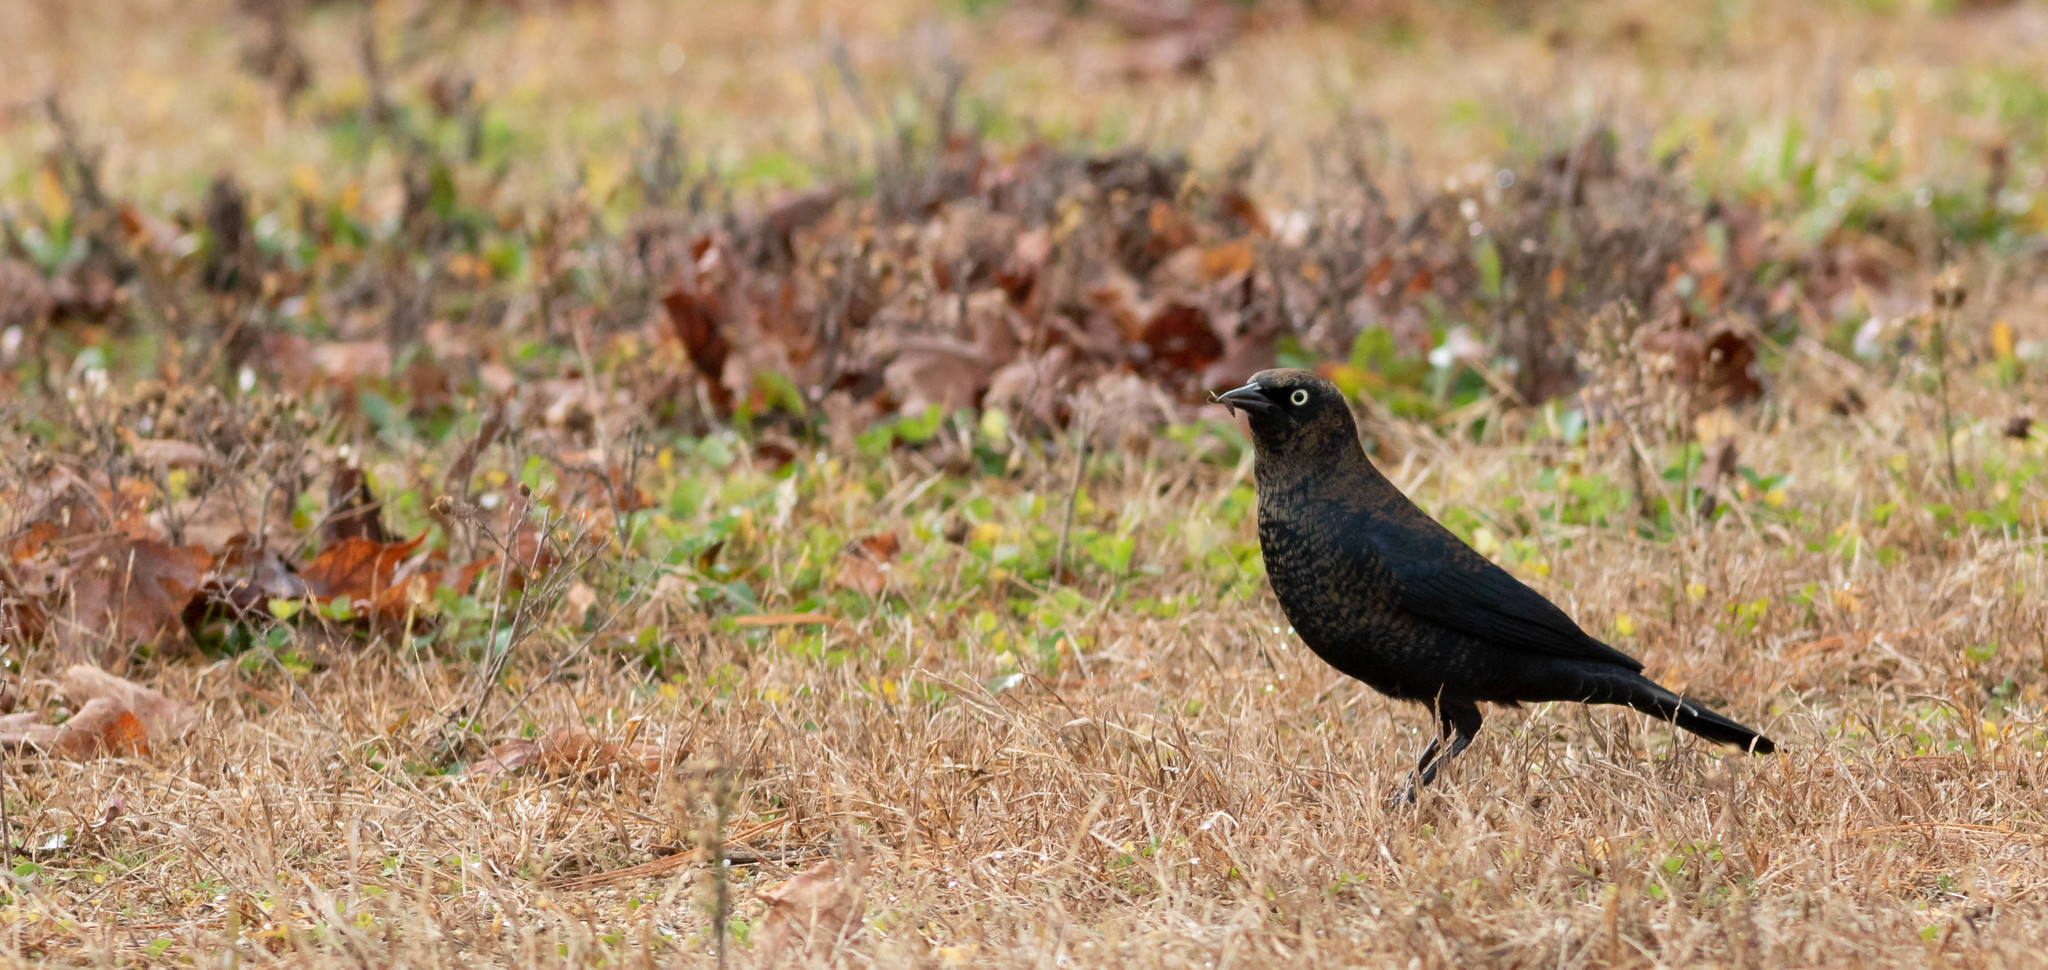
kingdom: Animalia
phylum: Chordata
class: Aves
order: Passeriformes
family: Icteridae
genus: Euphagus
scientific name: Euphagus carolinus
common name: Rusty blackbird
